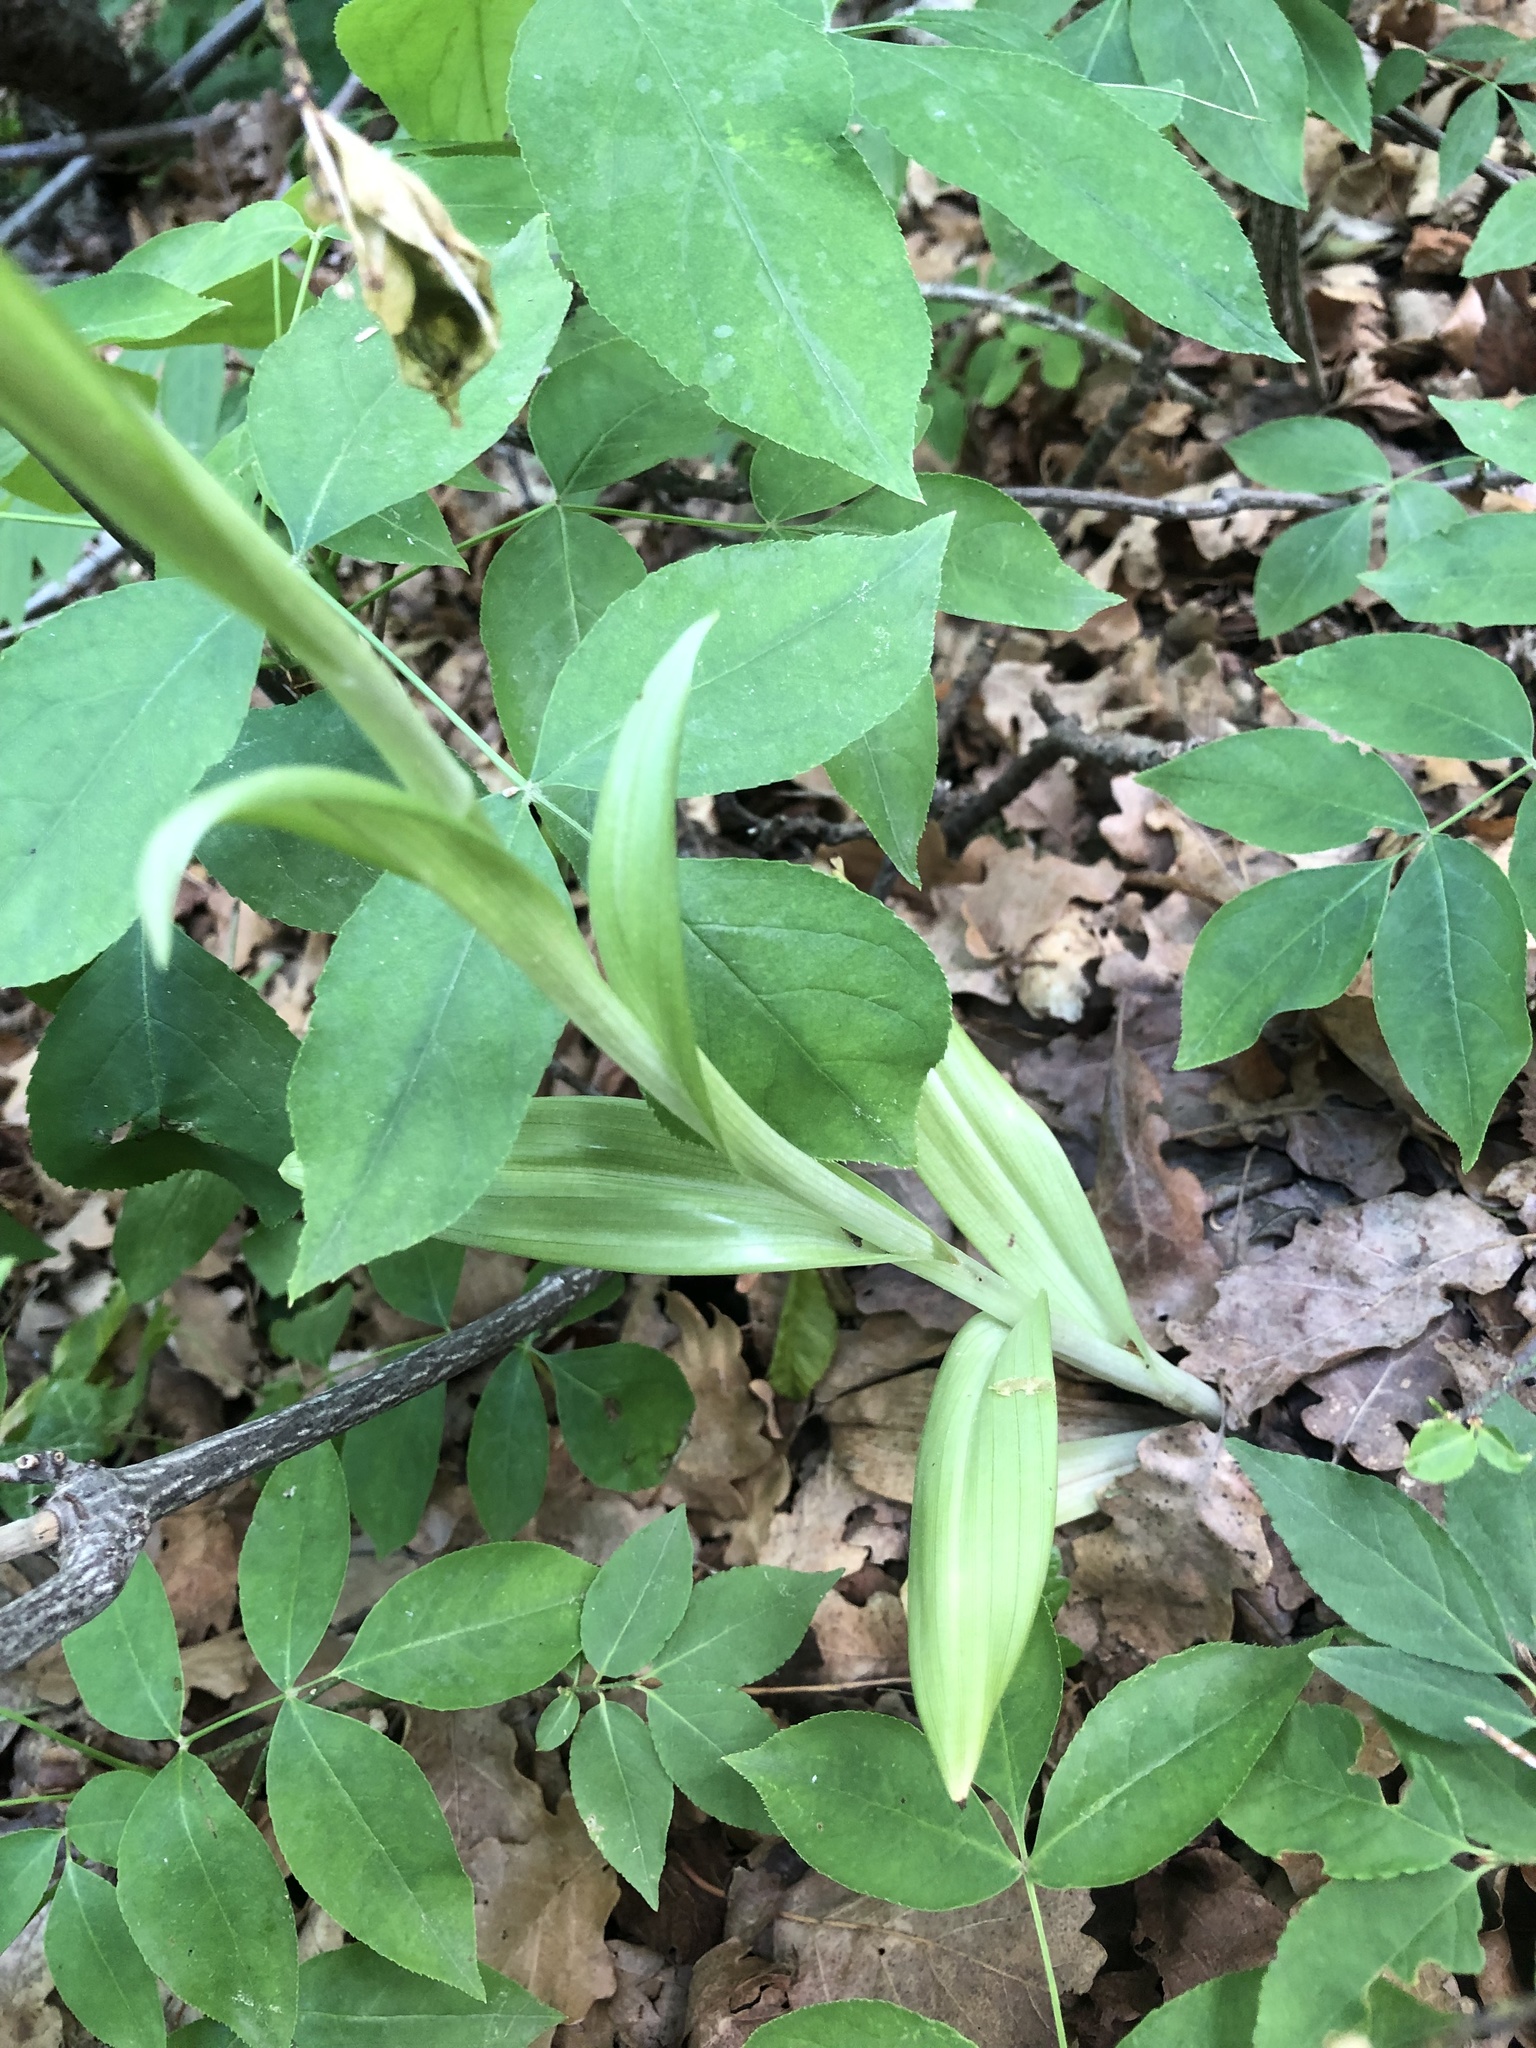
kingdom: Plantae
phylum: Tracheophyta
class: Liliopsida
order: Asparagales
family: Orchidaceae
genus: Himantoglossum
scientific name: Himantoglossum adriaticum
